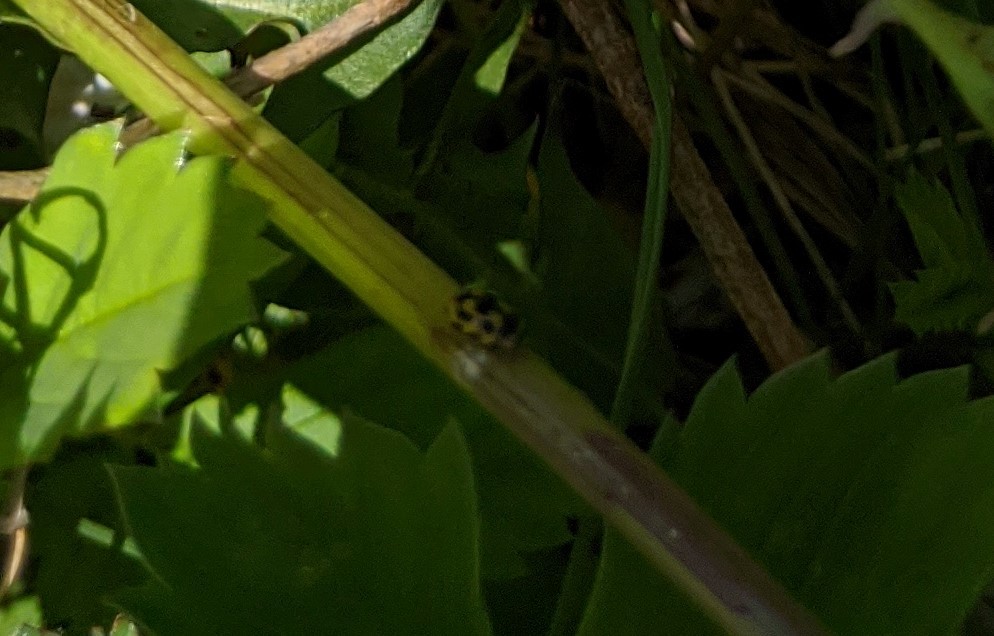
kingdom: Animalia
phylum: Arthropoda
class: Insecta
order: Coleoptera
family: Coccinellidae
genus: Propylaea
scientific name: Propylaea quatuordecimpunctata
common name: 14-spotted ladybird beetle
